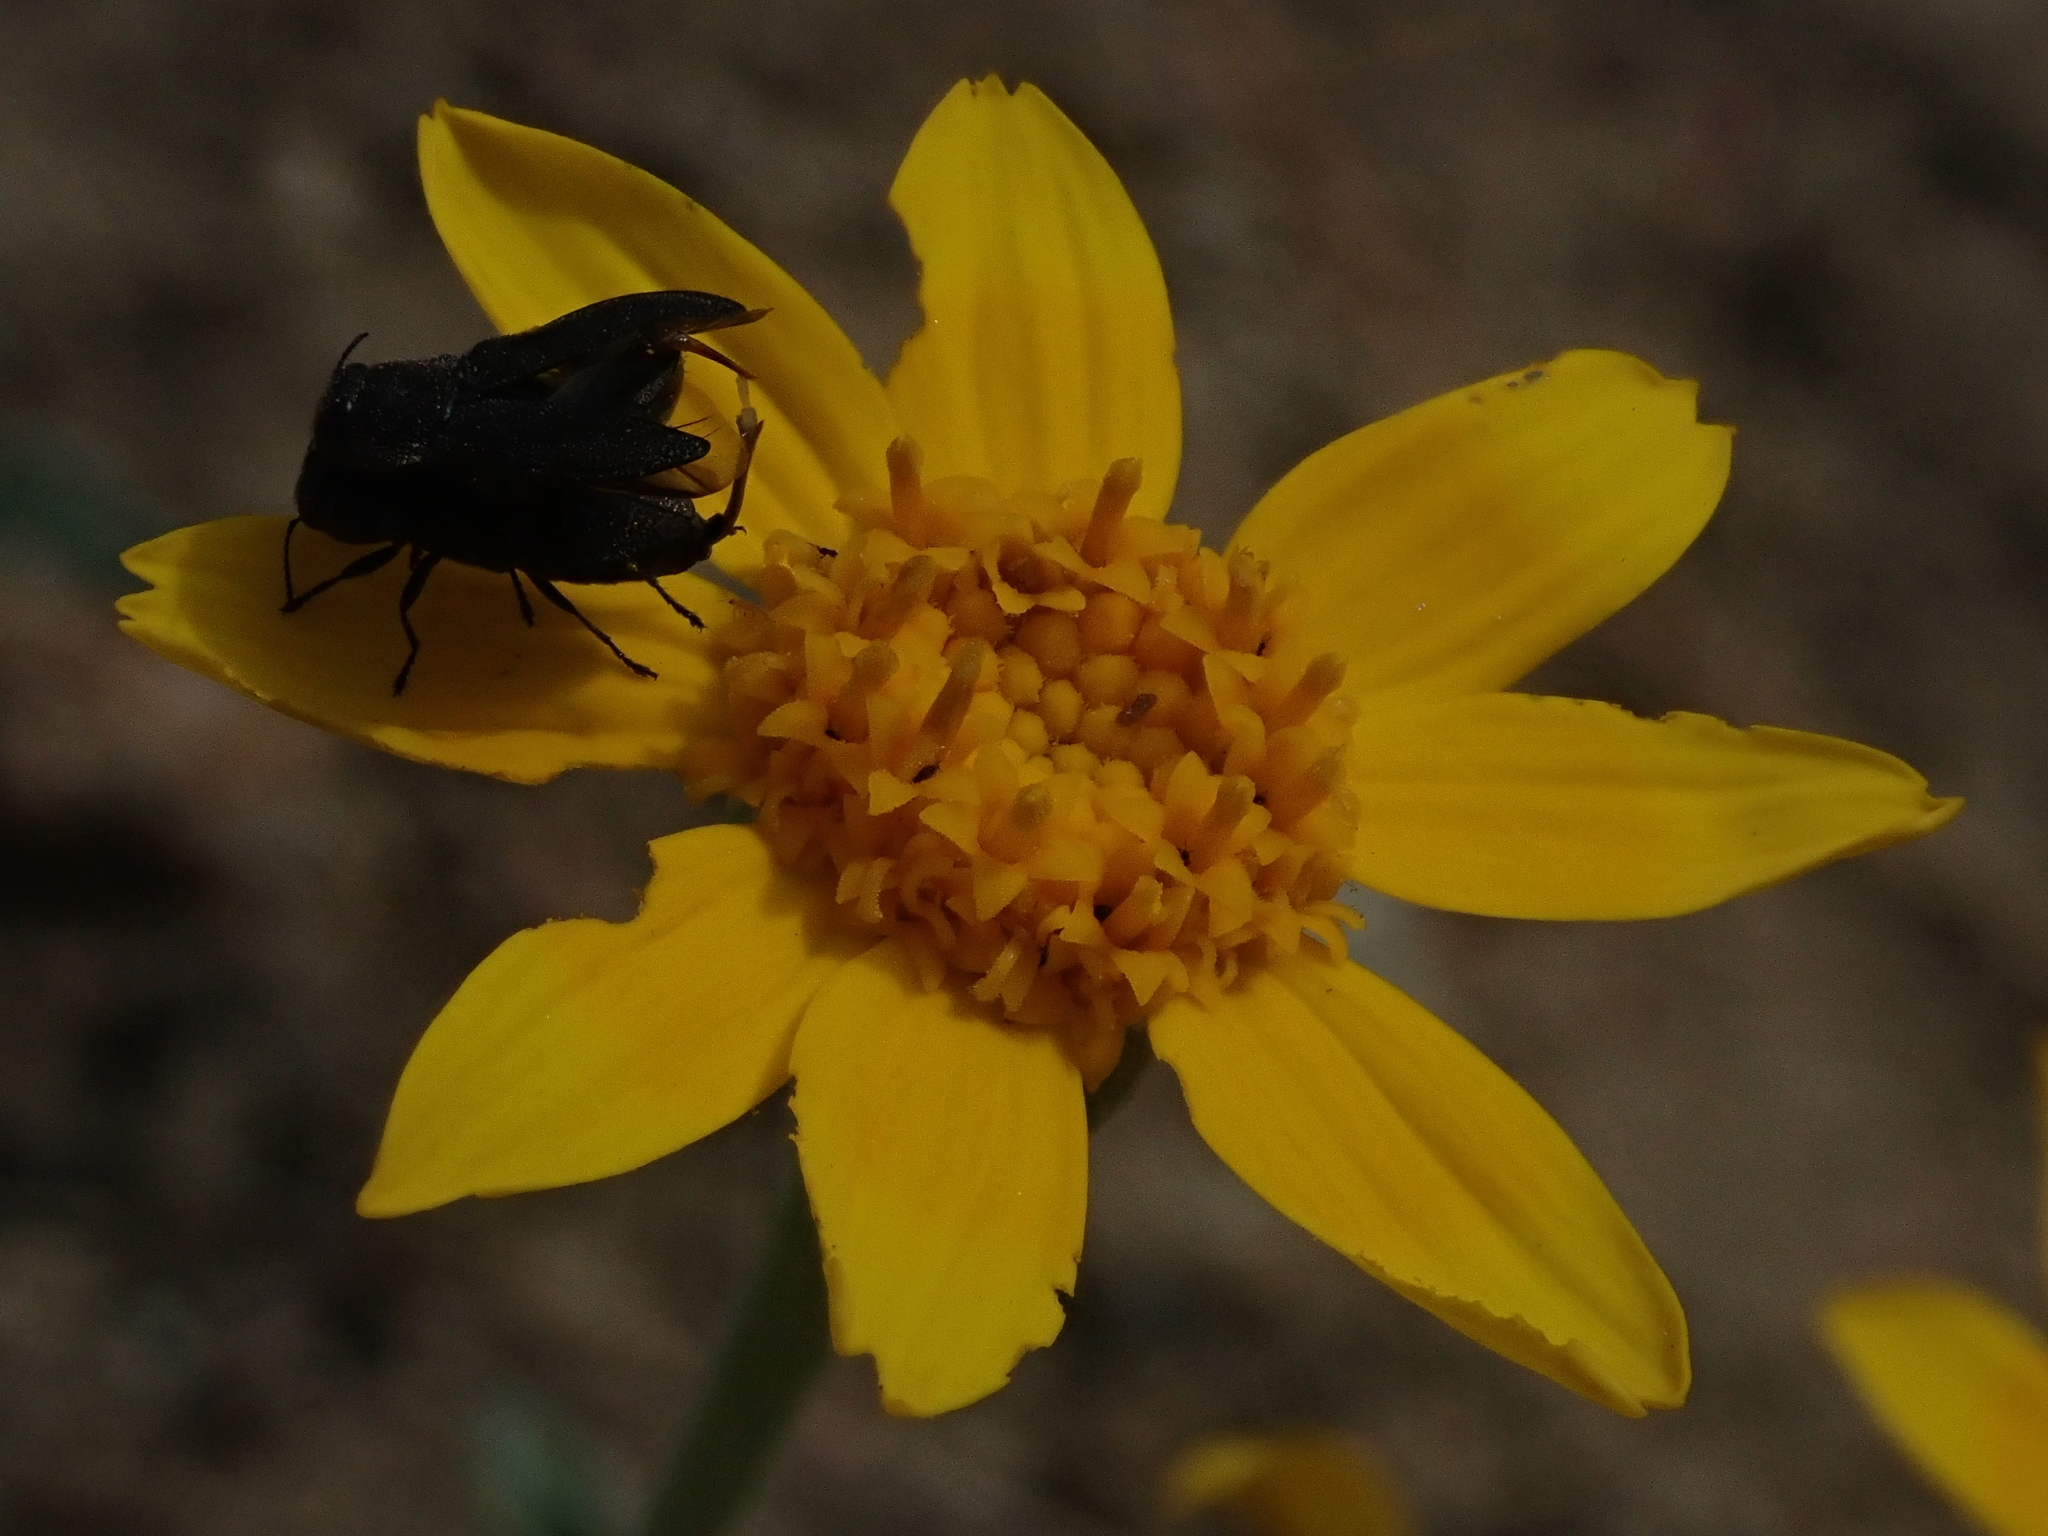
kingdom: Plantae
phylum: Tracheophyta
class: Magnoliopsida
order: Asterales
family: Asteraceae
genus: Eriophyllum
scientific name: Eriophyllum lanatum
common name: Common woolly-sunflower
